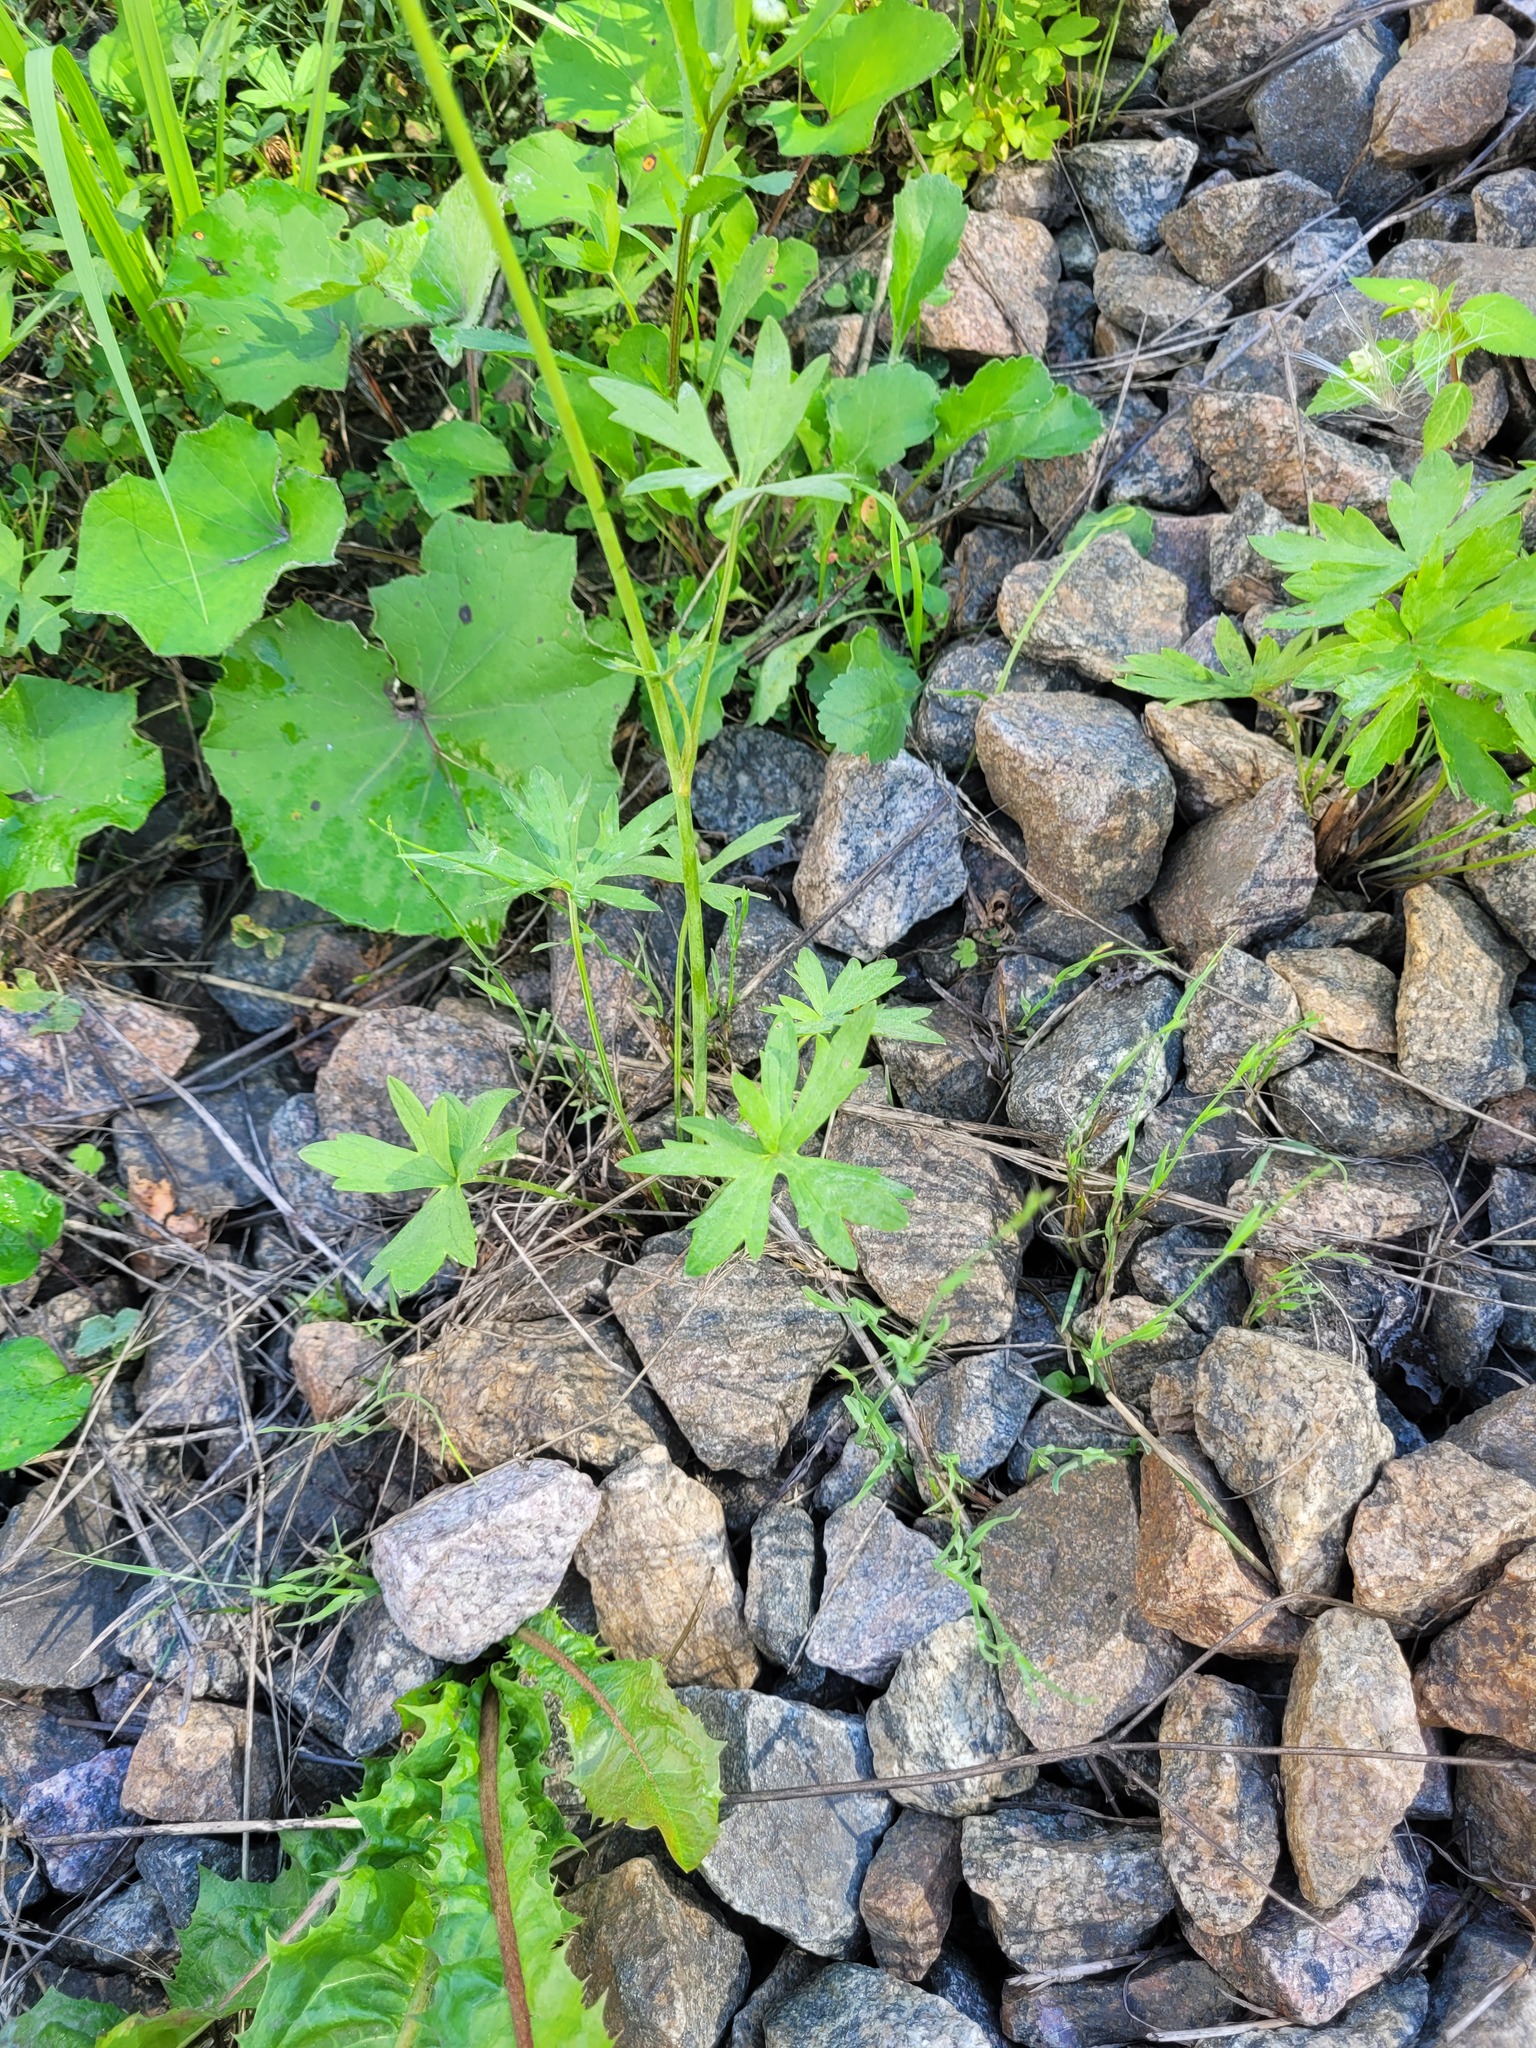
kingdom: Plantae
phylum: Tracheophyta
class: Magnoliopsida
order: Ranunculales
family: Ranunculaceae
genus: Ranunculus
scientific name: Ranunculus acris
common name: Meadow buttercup
